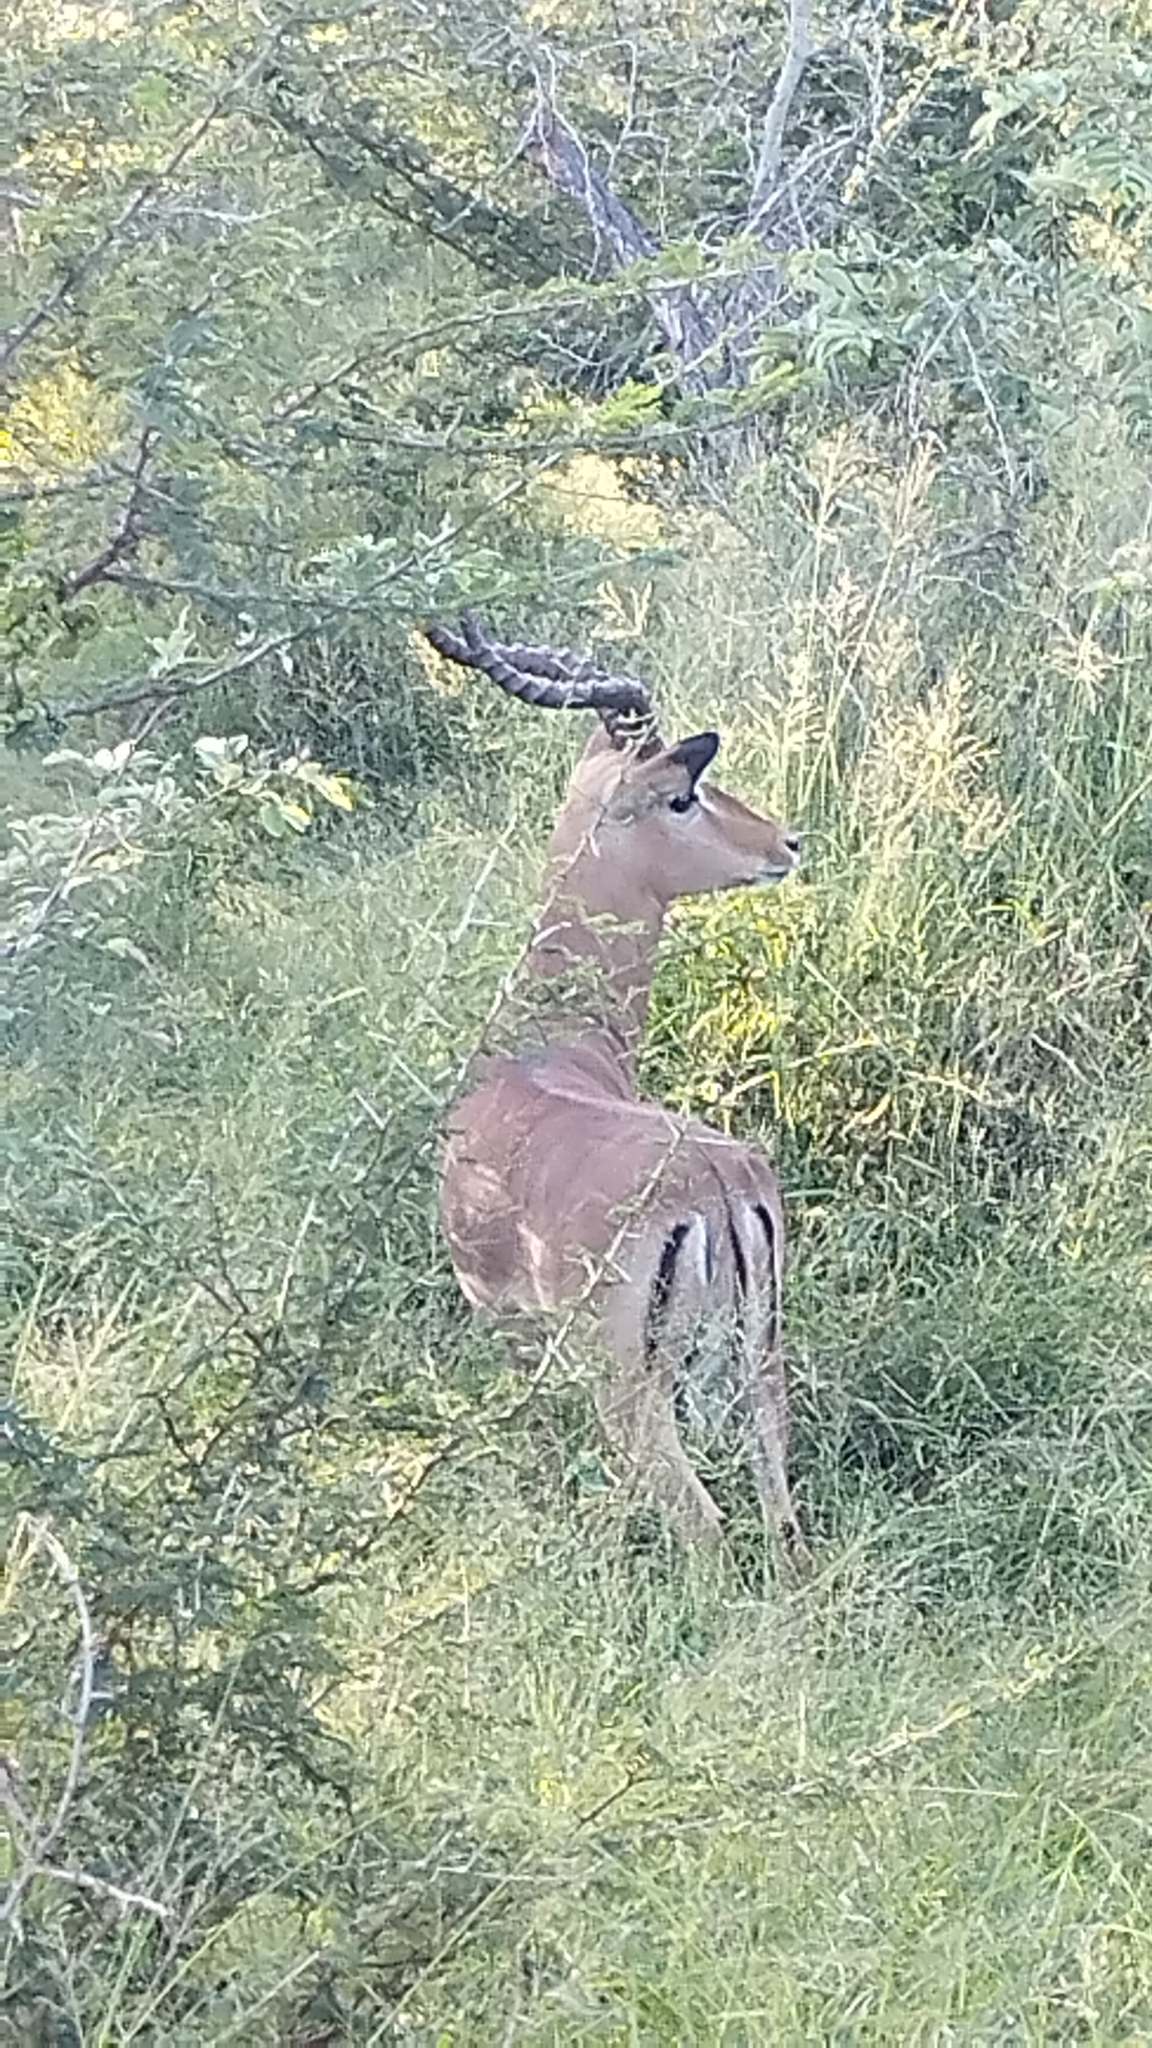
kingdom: Animalia
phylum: Chordata
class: Mammalia
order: Artiodactyla
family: Bovidae
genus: Aepyceros
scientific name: Aepyceros melampus
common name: Impala
